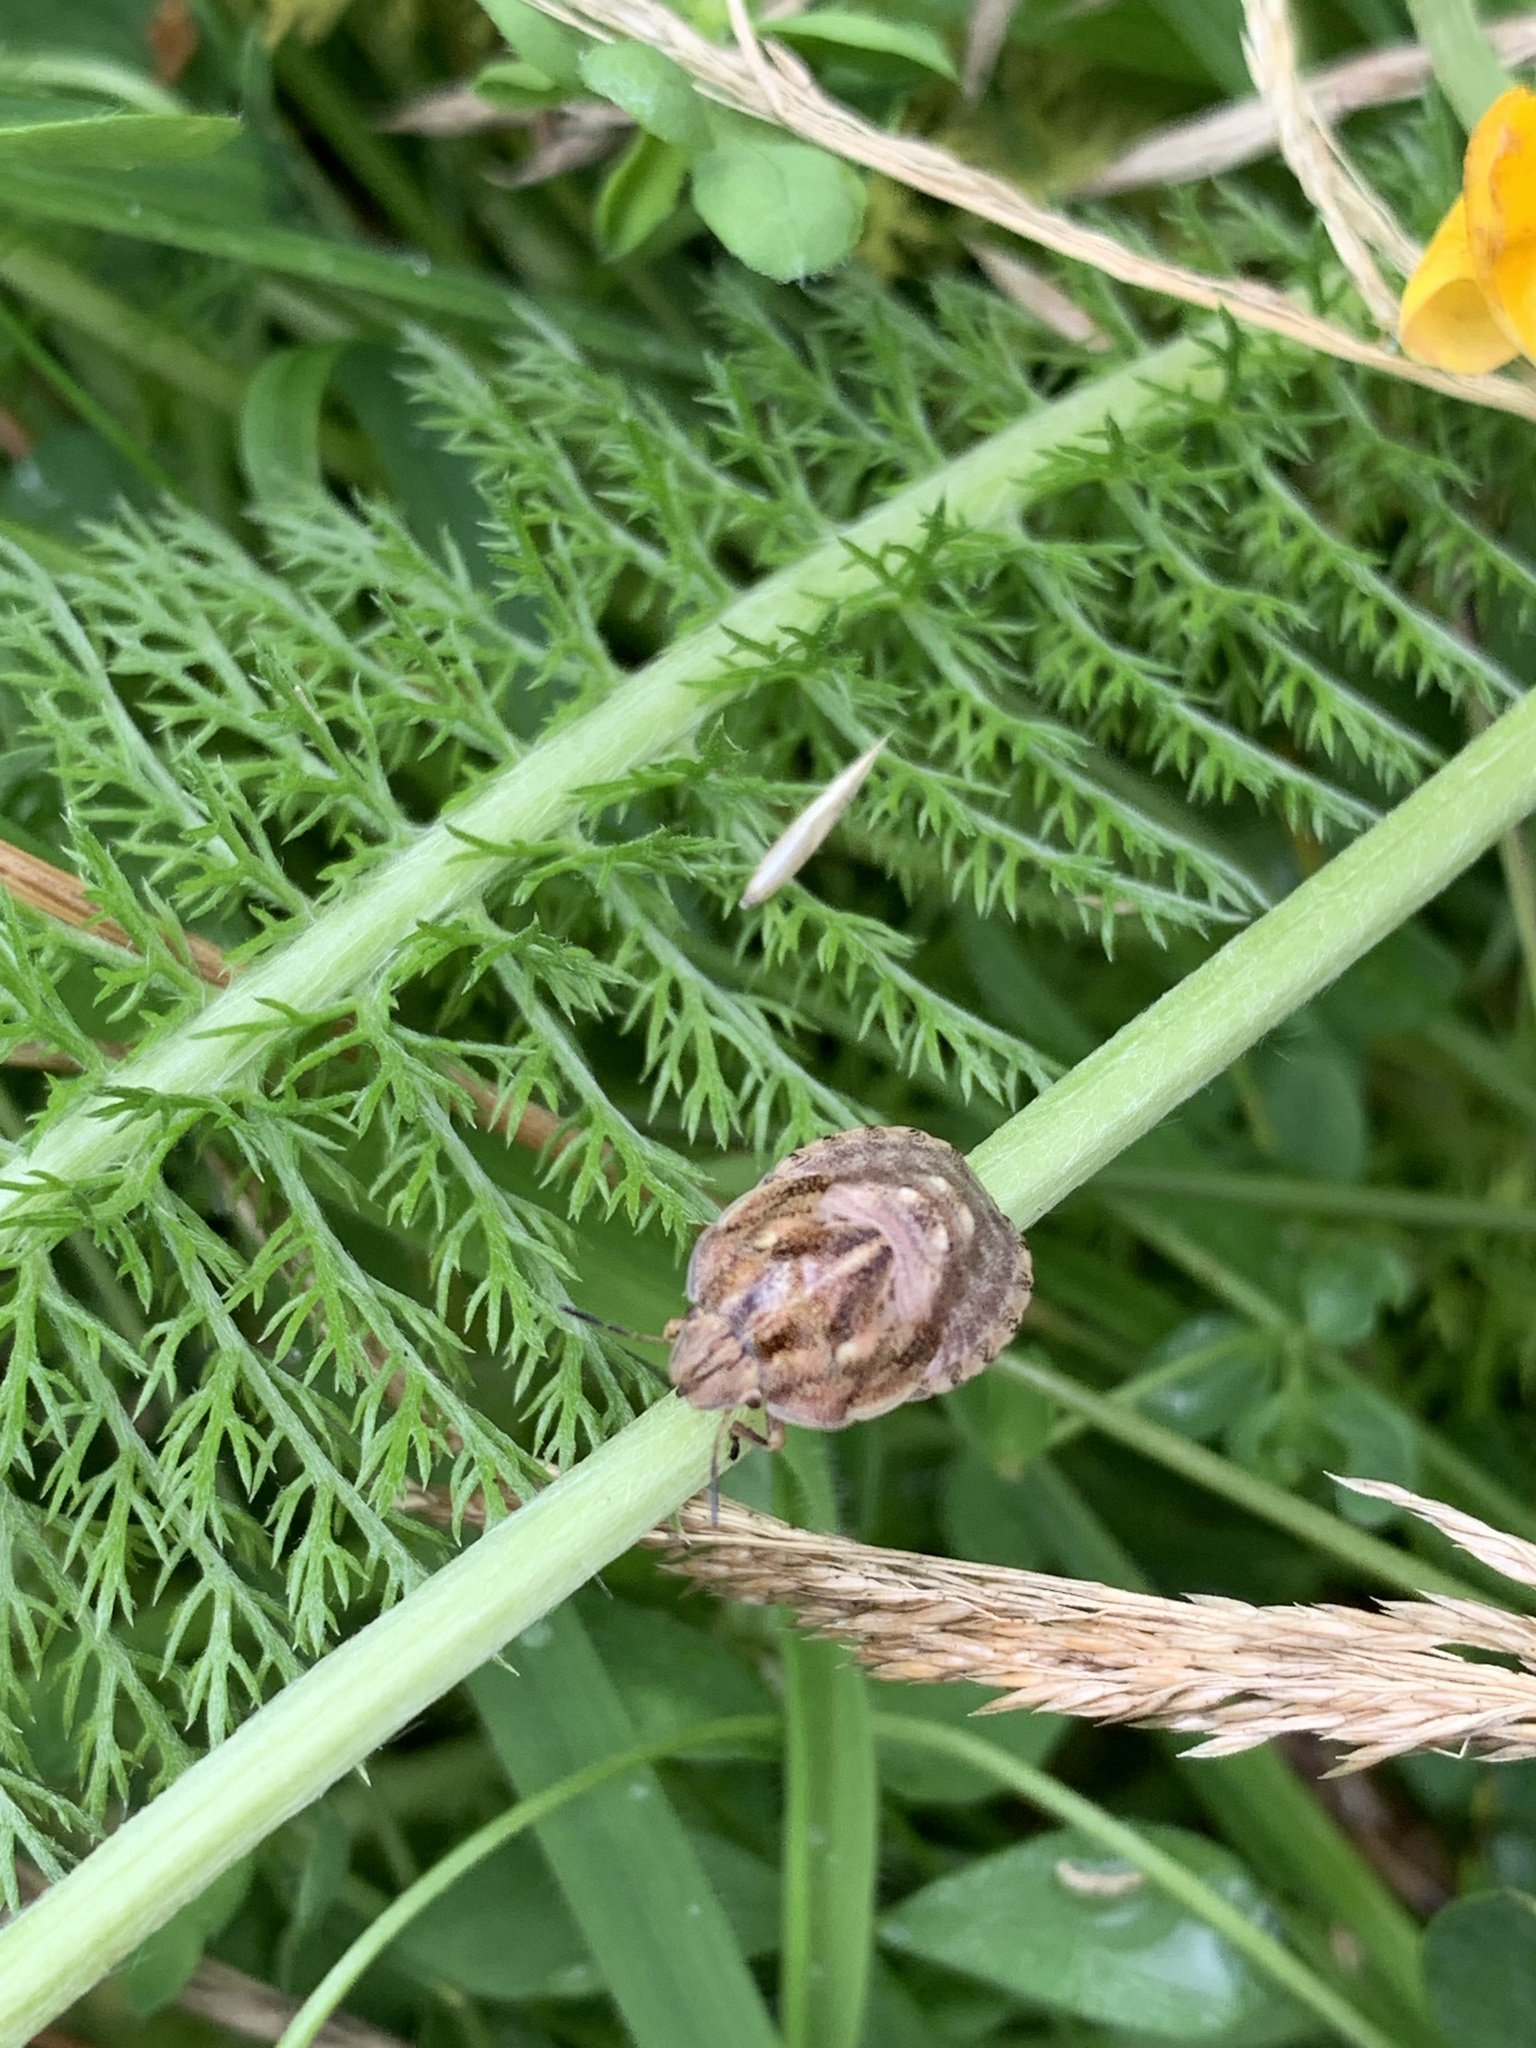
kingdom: Animalia
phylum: Arthropoda
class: Insecta
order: Hemiptera
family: Scutelleridae
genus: Eurygaster
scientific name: Eurygaster testudinaria
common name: Tortoise bug
